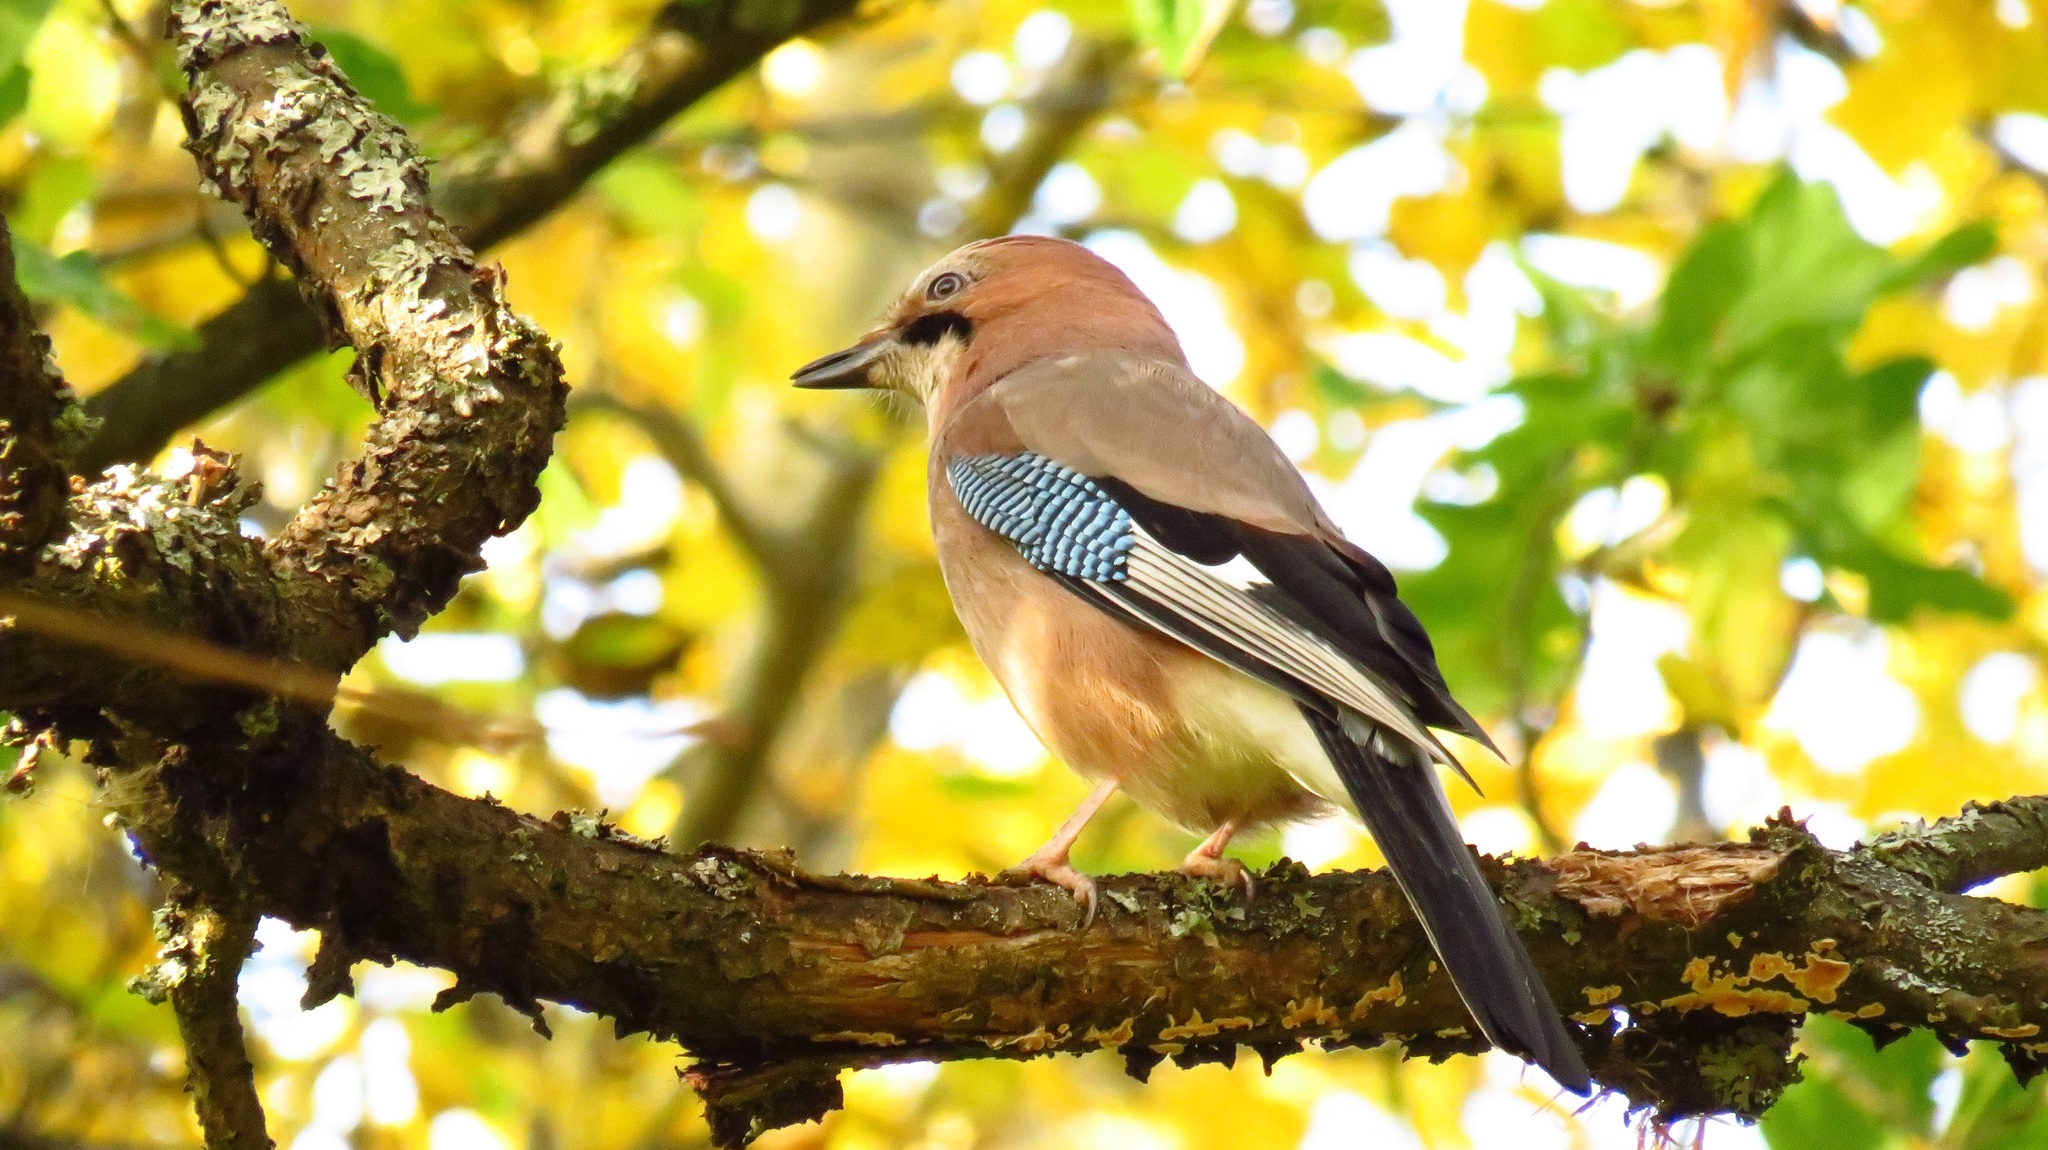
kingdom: Animalia
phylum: Chordata
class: Aves
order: Passeriformes
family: Corvidae
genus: Garrulus
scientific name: Garrulus glandarius
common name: Eurasian jay
